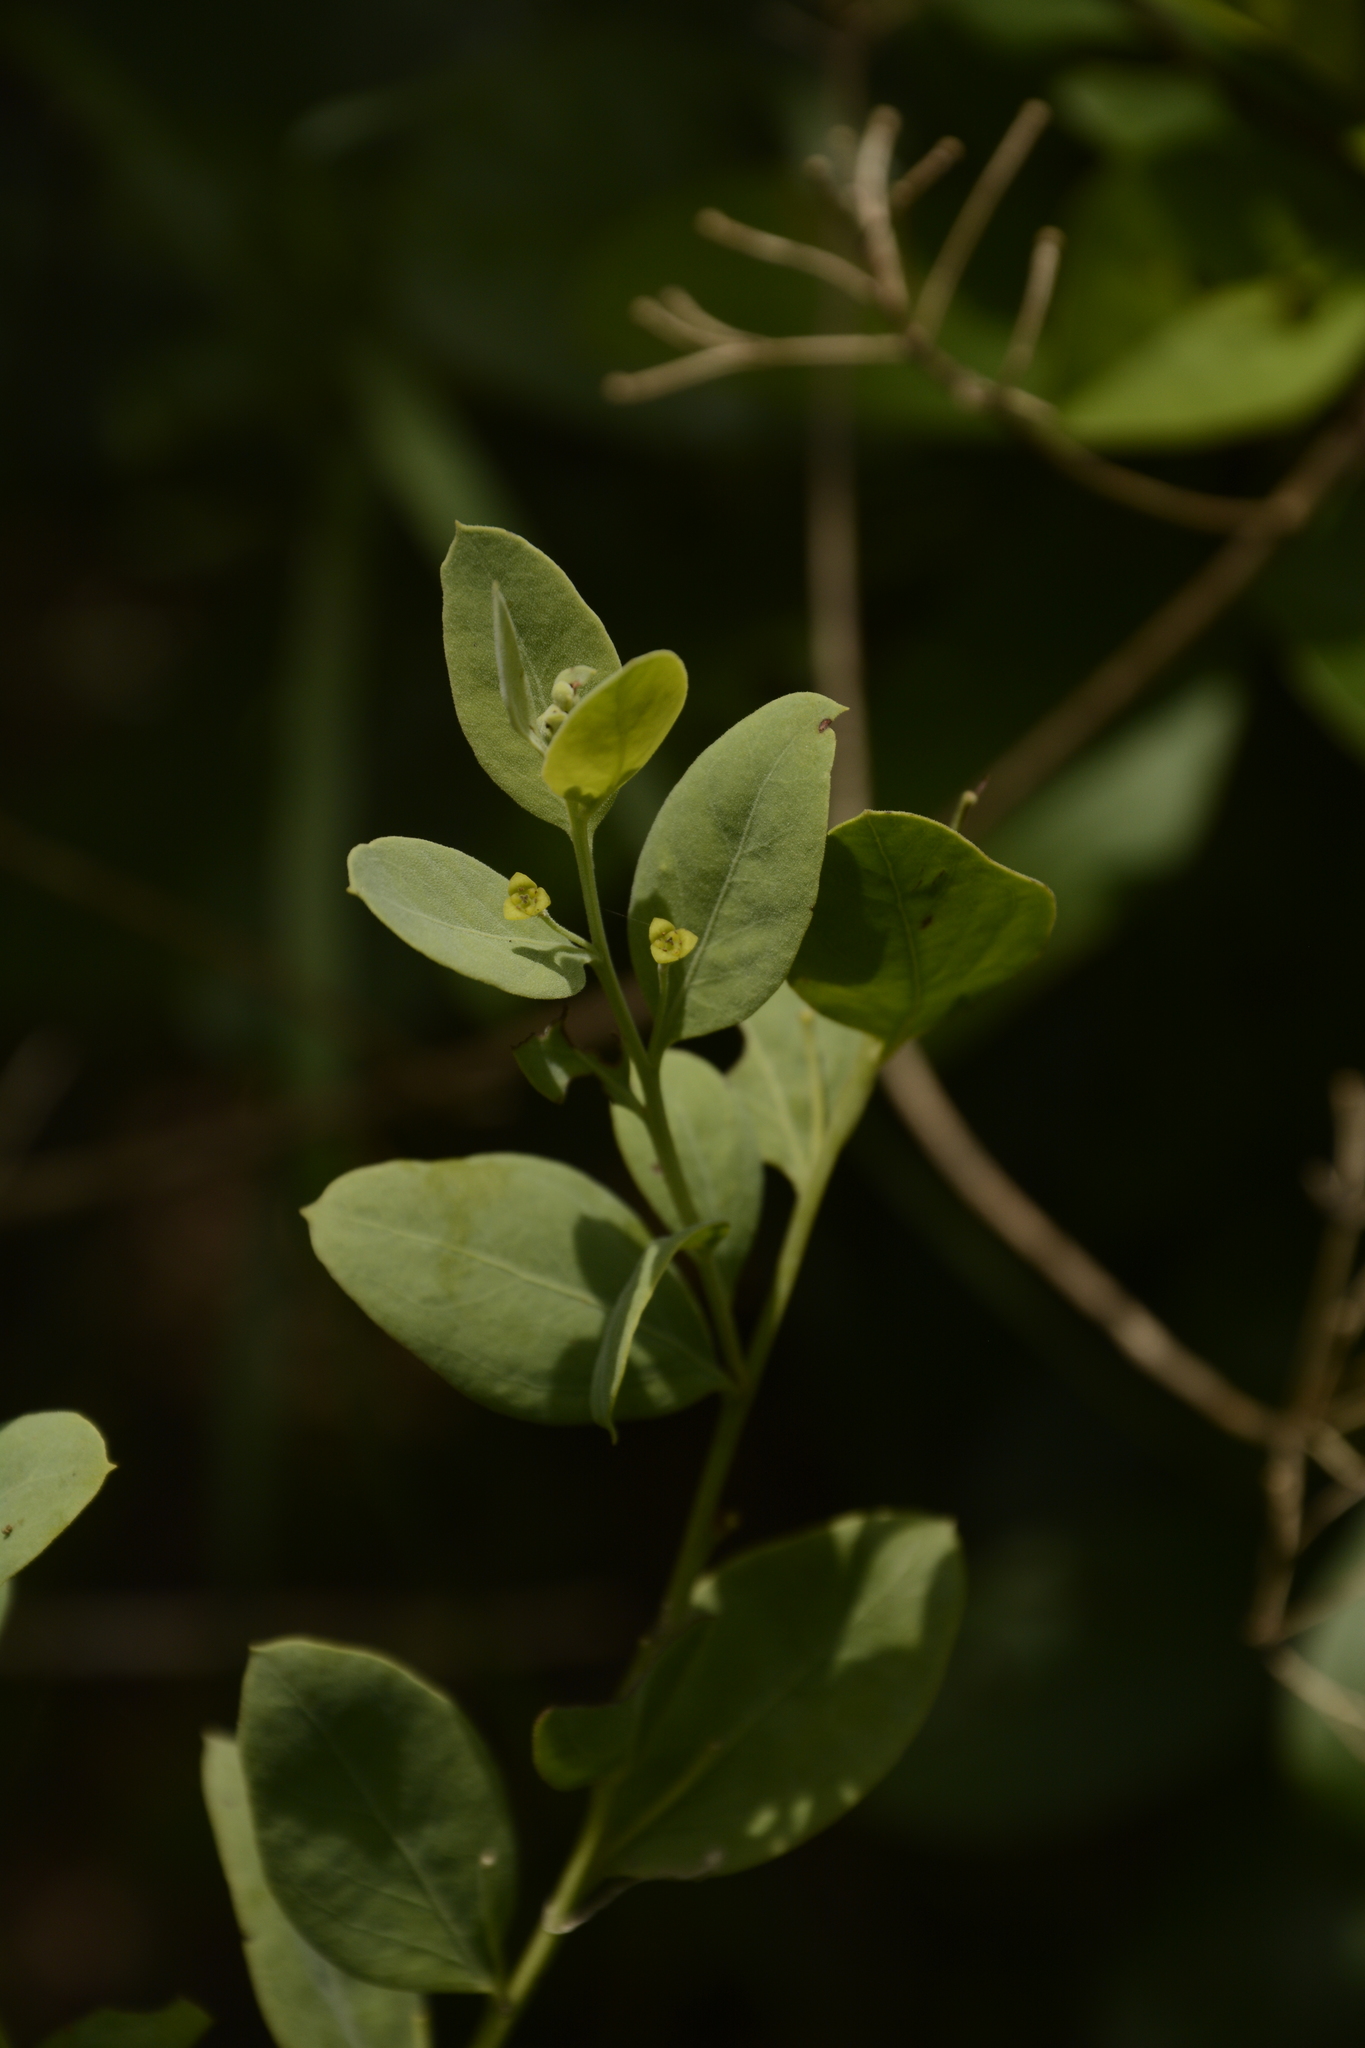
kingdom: Plantae
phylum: Tracheophyta
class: Magnoliopsida
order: Santalales
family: Santalaceae
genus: Osyris
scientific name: Osyris lanceolata
